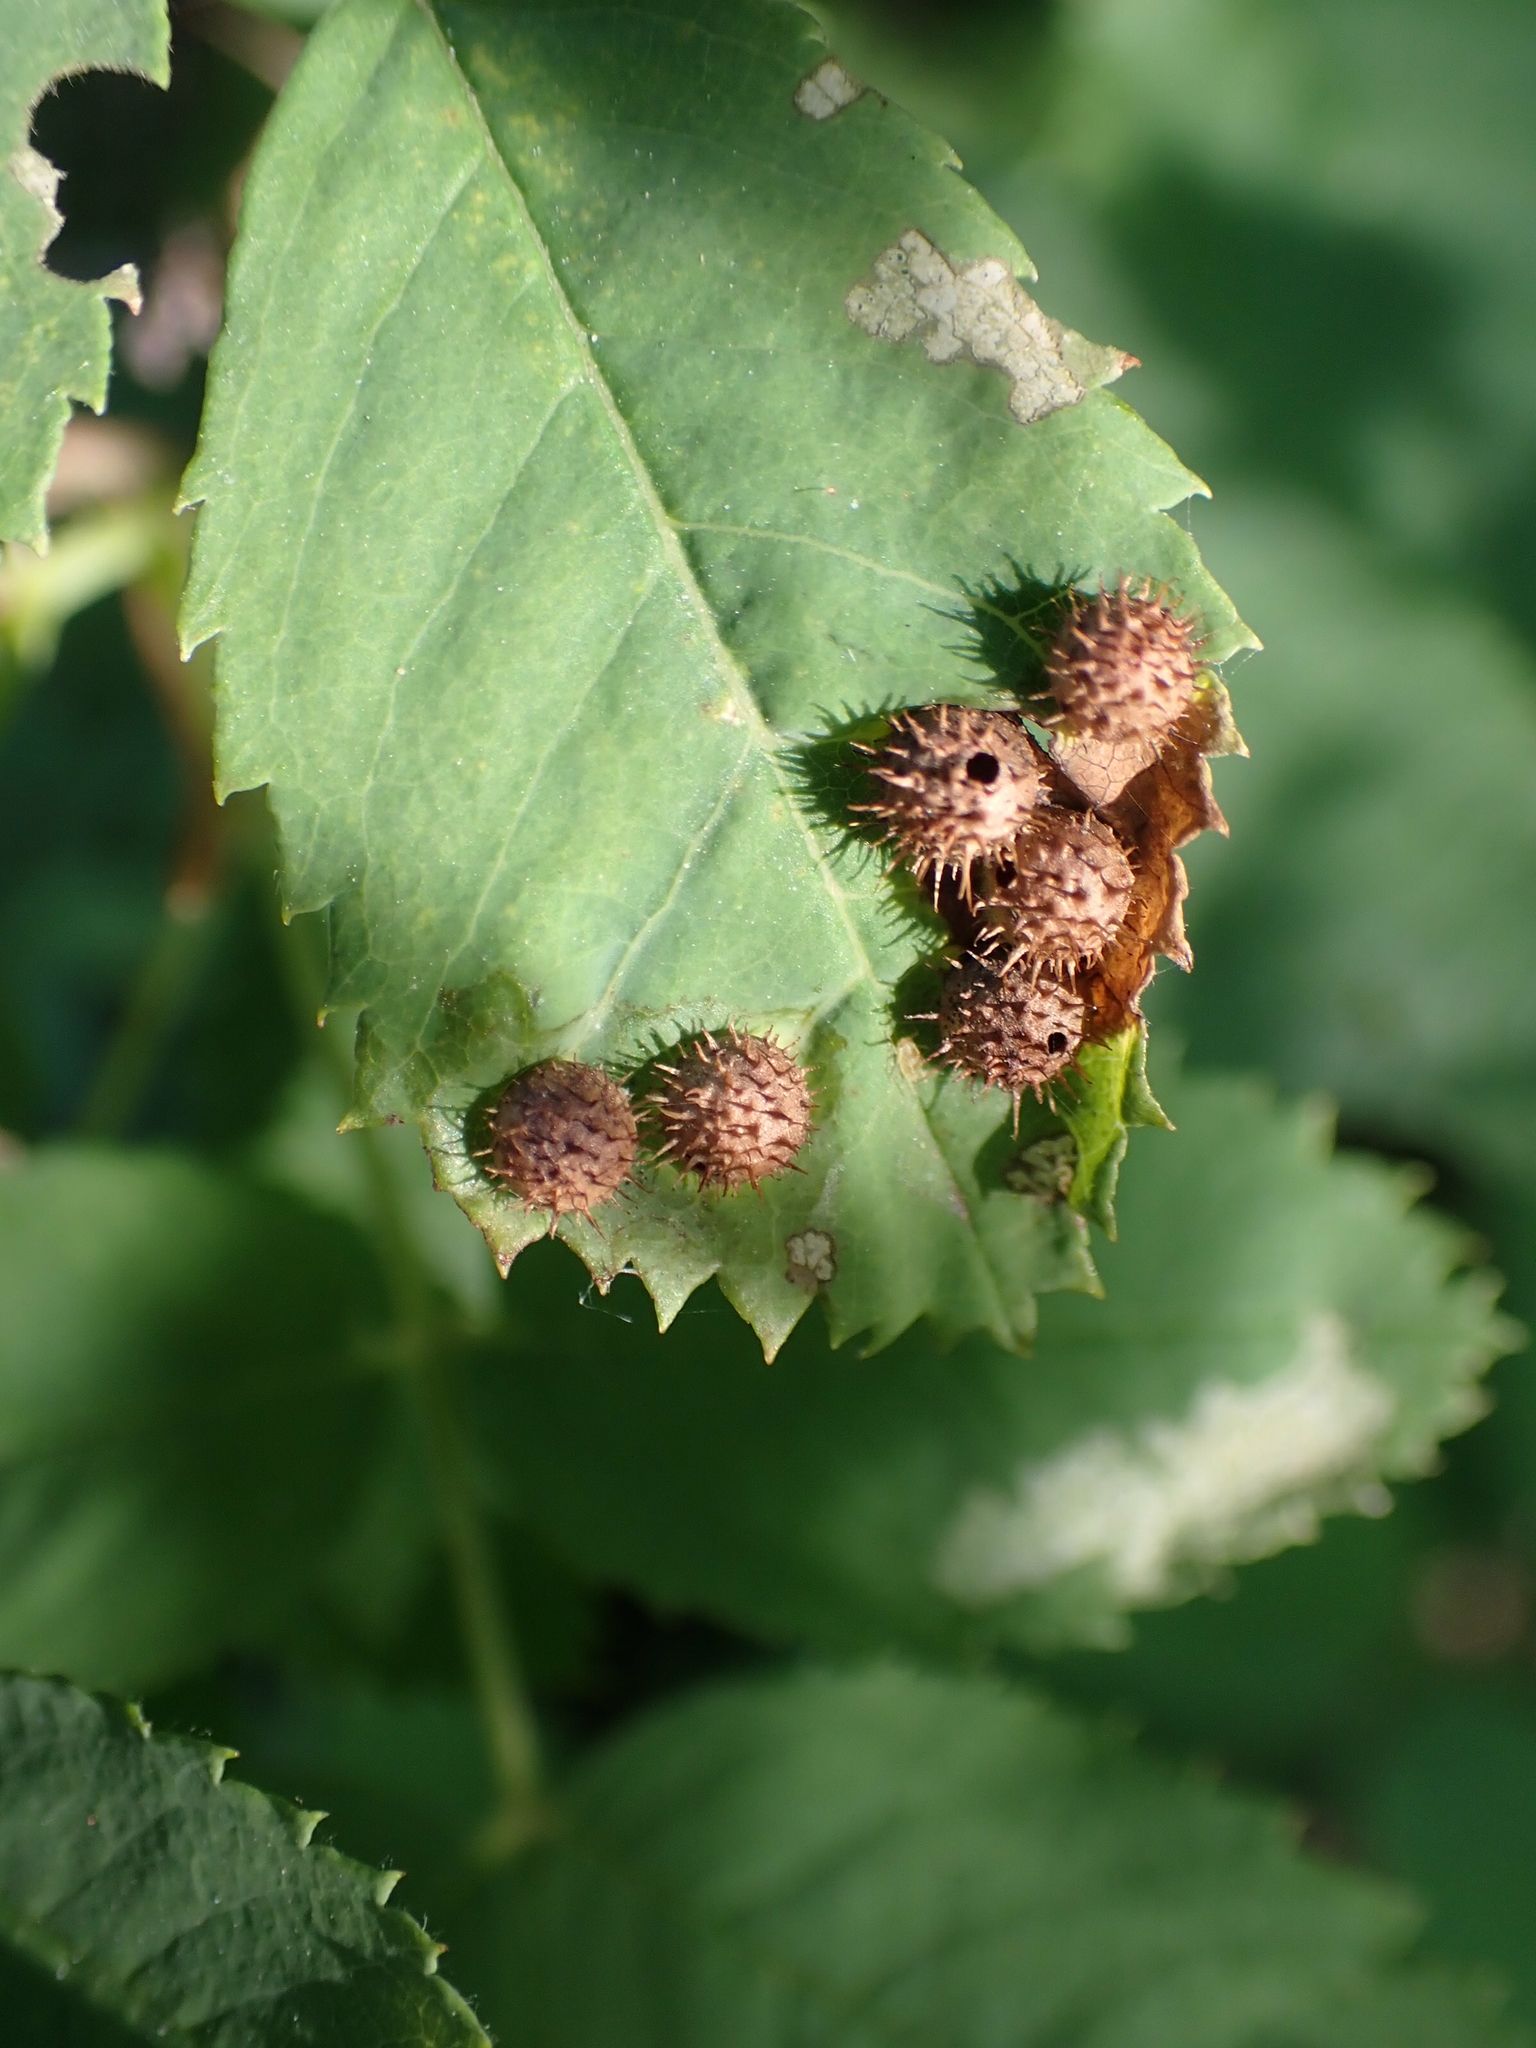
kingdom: Animalia
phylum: Arthropoda
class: Insecta
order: Hymenoptera
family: Cynipidae
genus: Diplolepis
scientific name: Diplolepis polita
